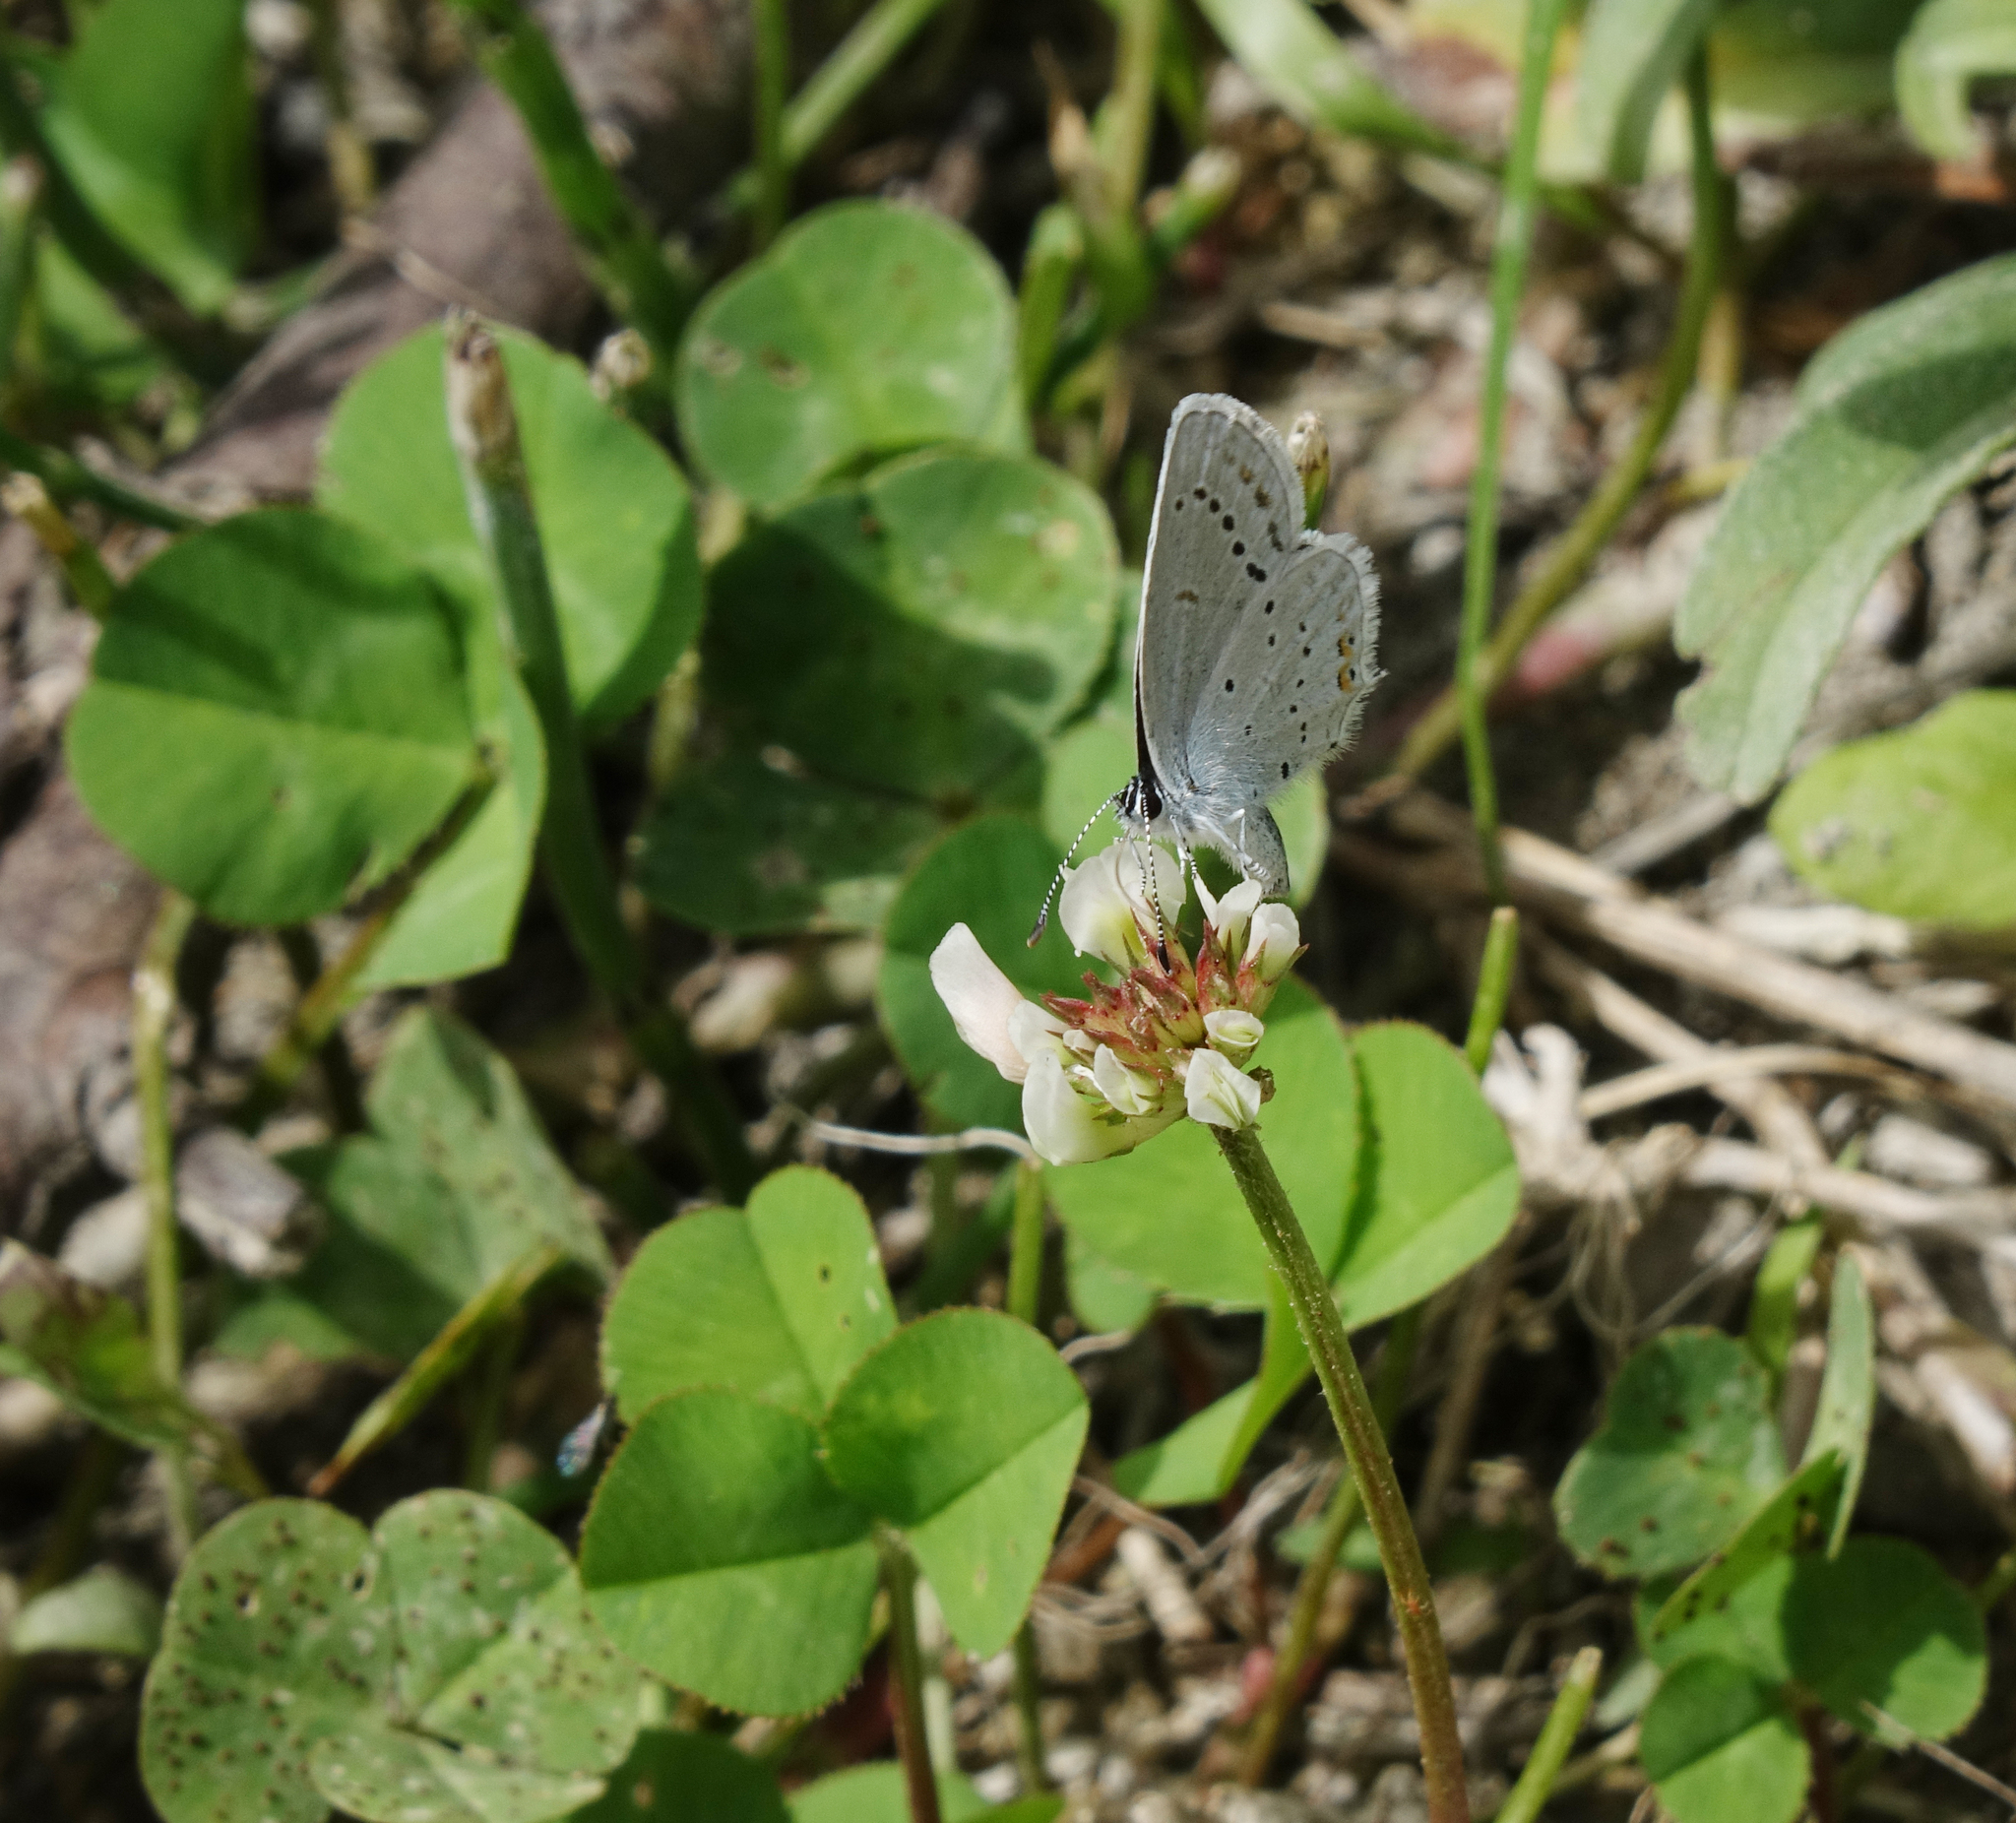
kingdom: Plantae
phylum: Tracheophyta
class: Magnoliopsida
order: Fabales
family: Fabaceae
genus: Trifolium
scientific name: Trifolium repens
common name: White clover
